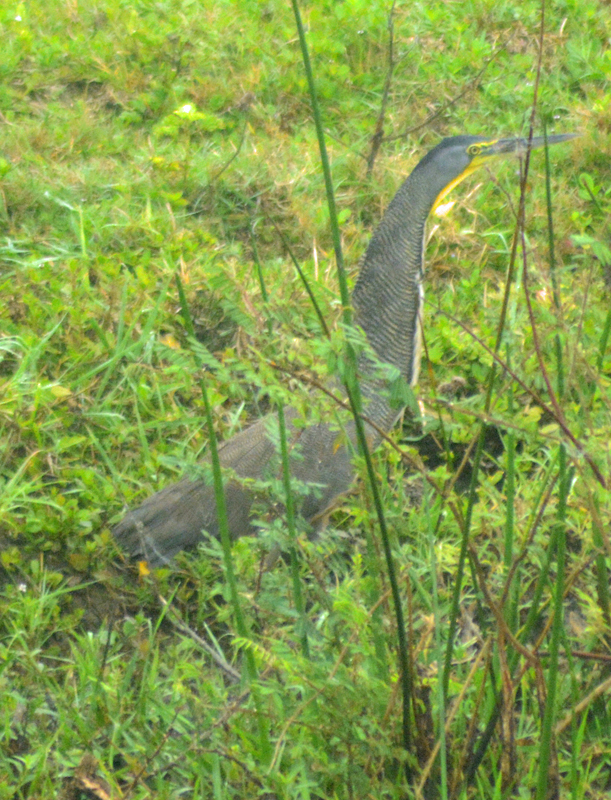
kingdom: Animalia
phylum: Chordata
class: Aves
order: Pelecaniformes
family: Ardeidae
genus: Tigrisoma
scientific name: Tigrisoma mexicanum
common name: Bare-throated tiger-heron
